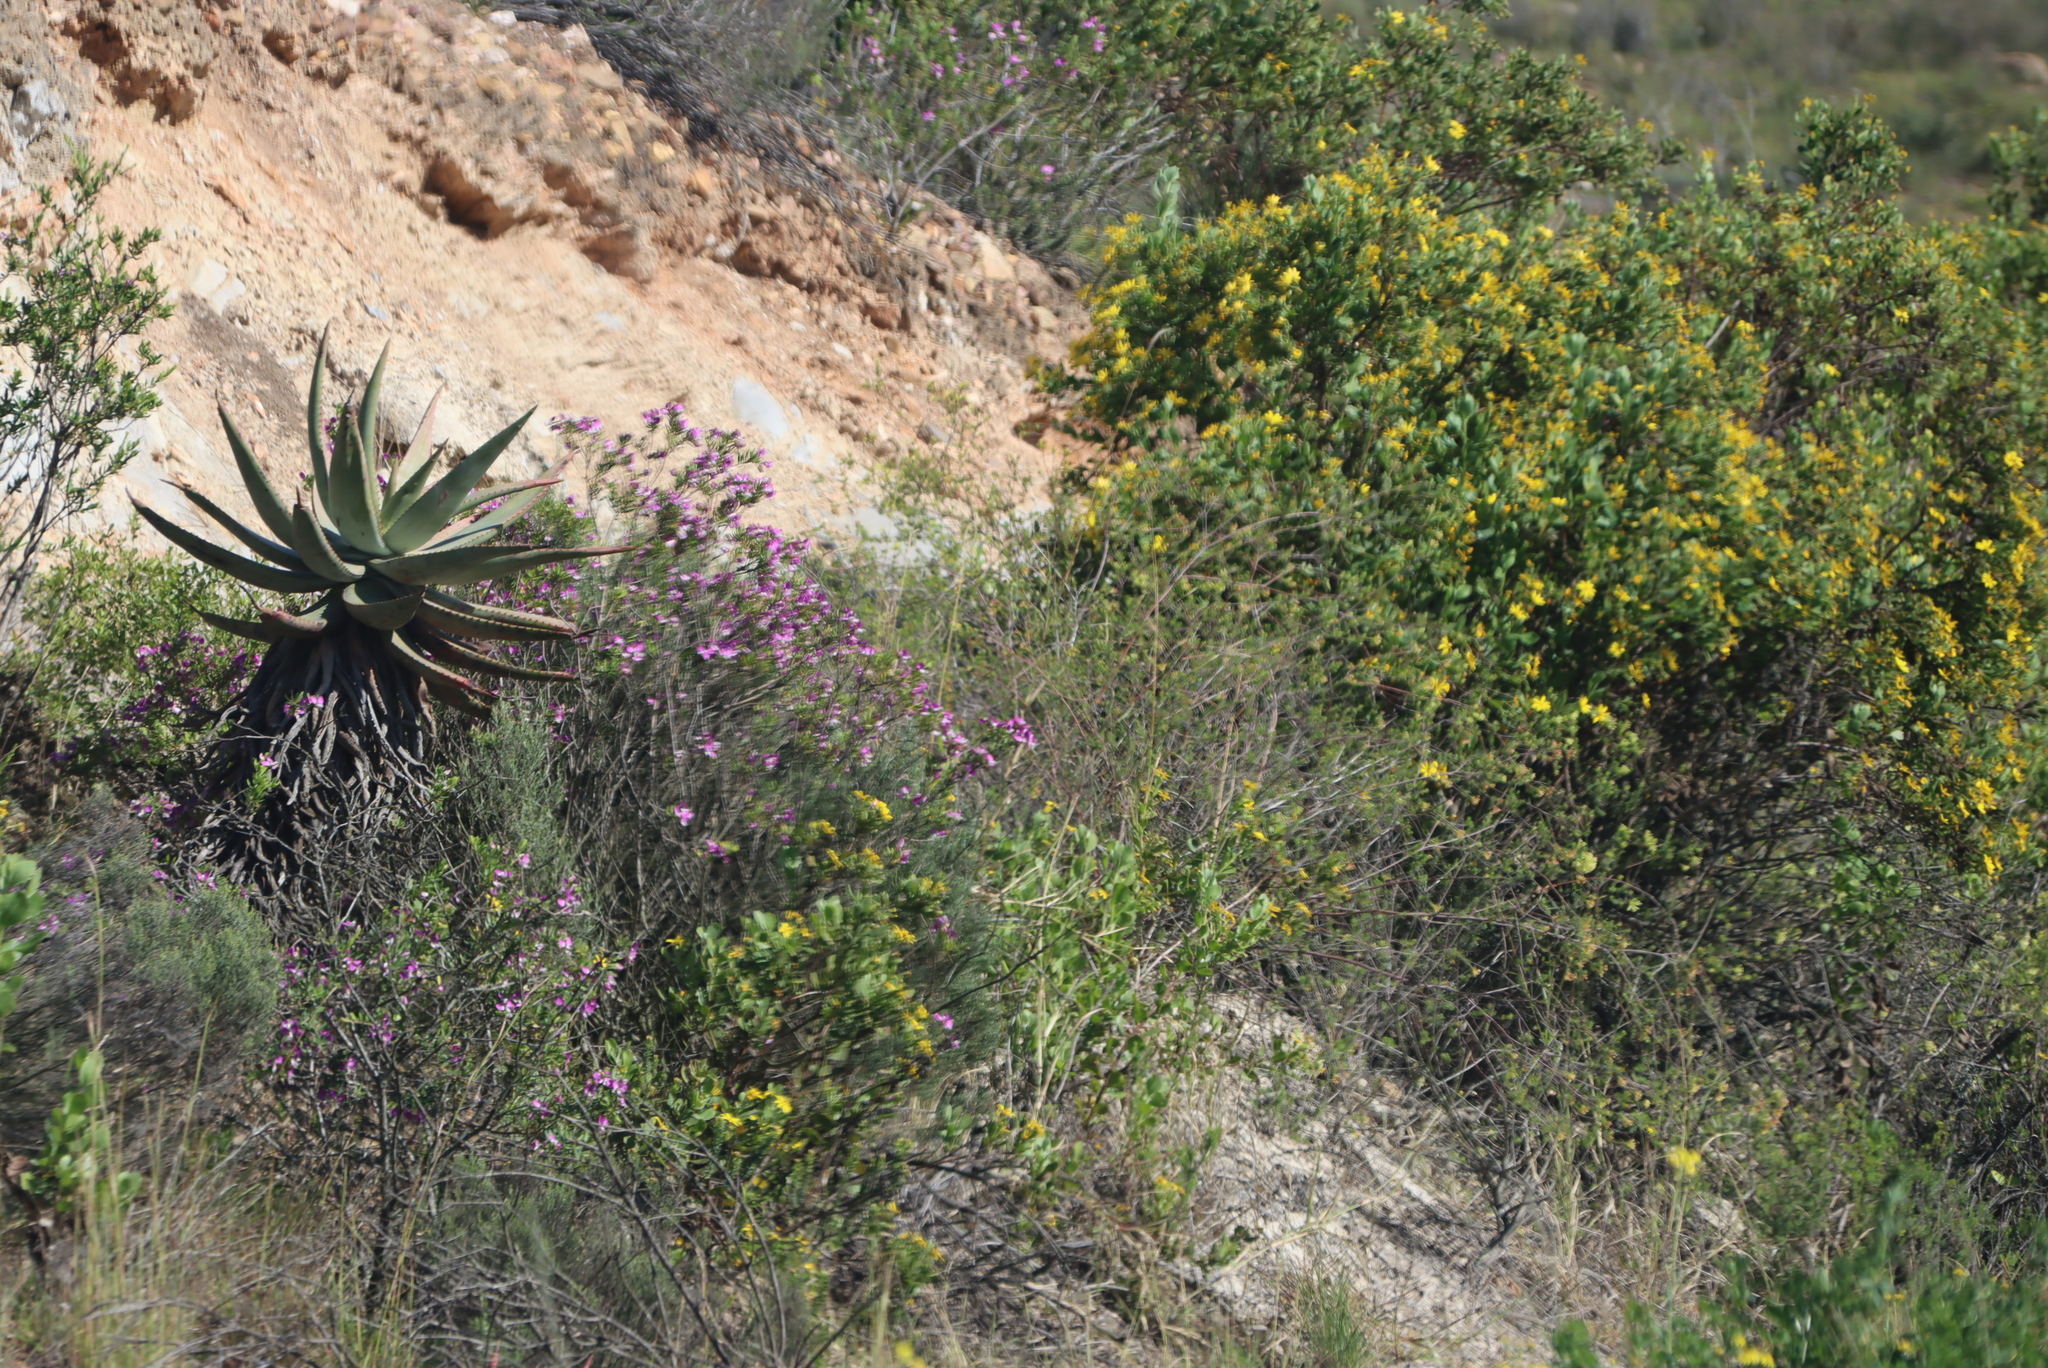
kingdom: Plantae
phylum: Tracheophyta
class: Liliopsida
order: Asparagales
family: Asphodelaceae
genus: Aloe
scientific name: Aloe ferox
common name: Bitter aloe
